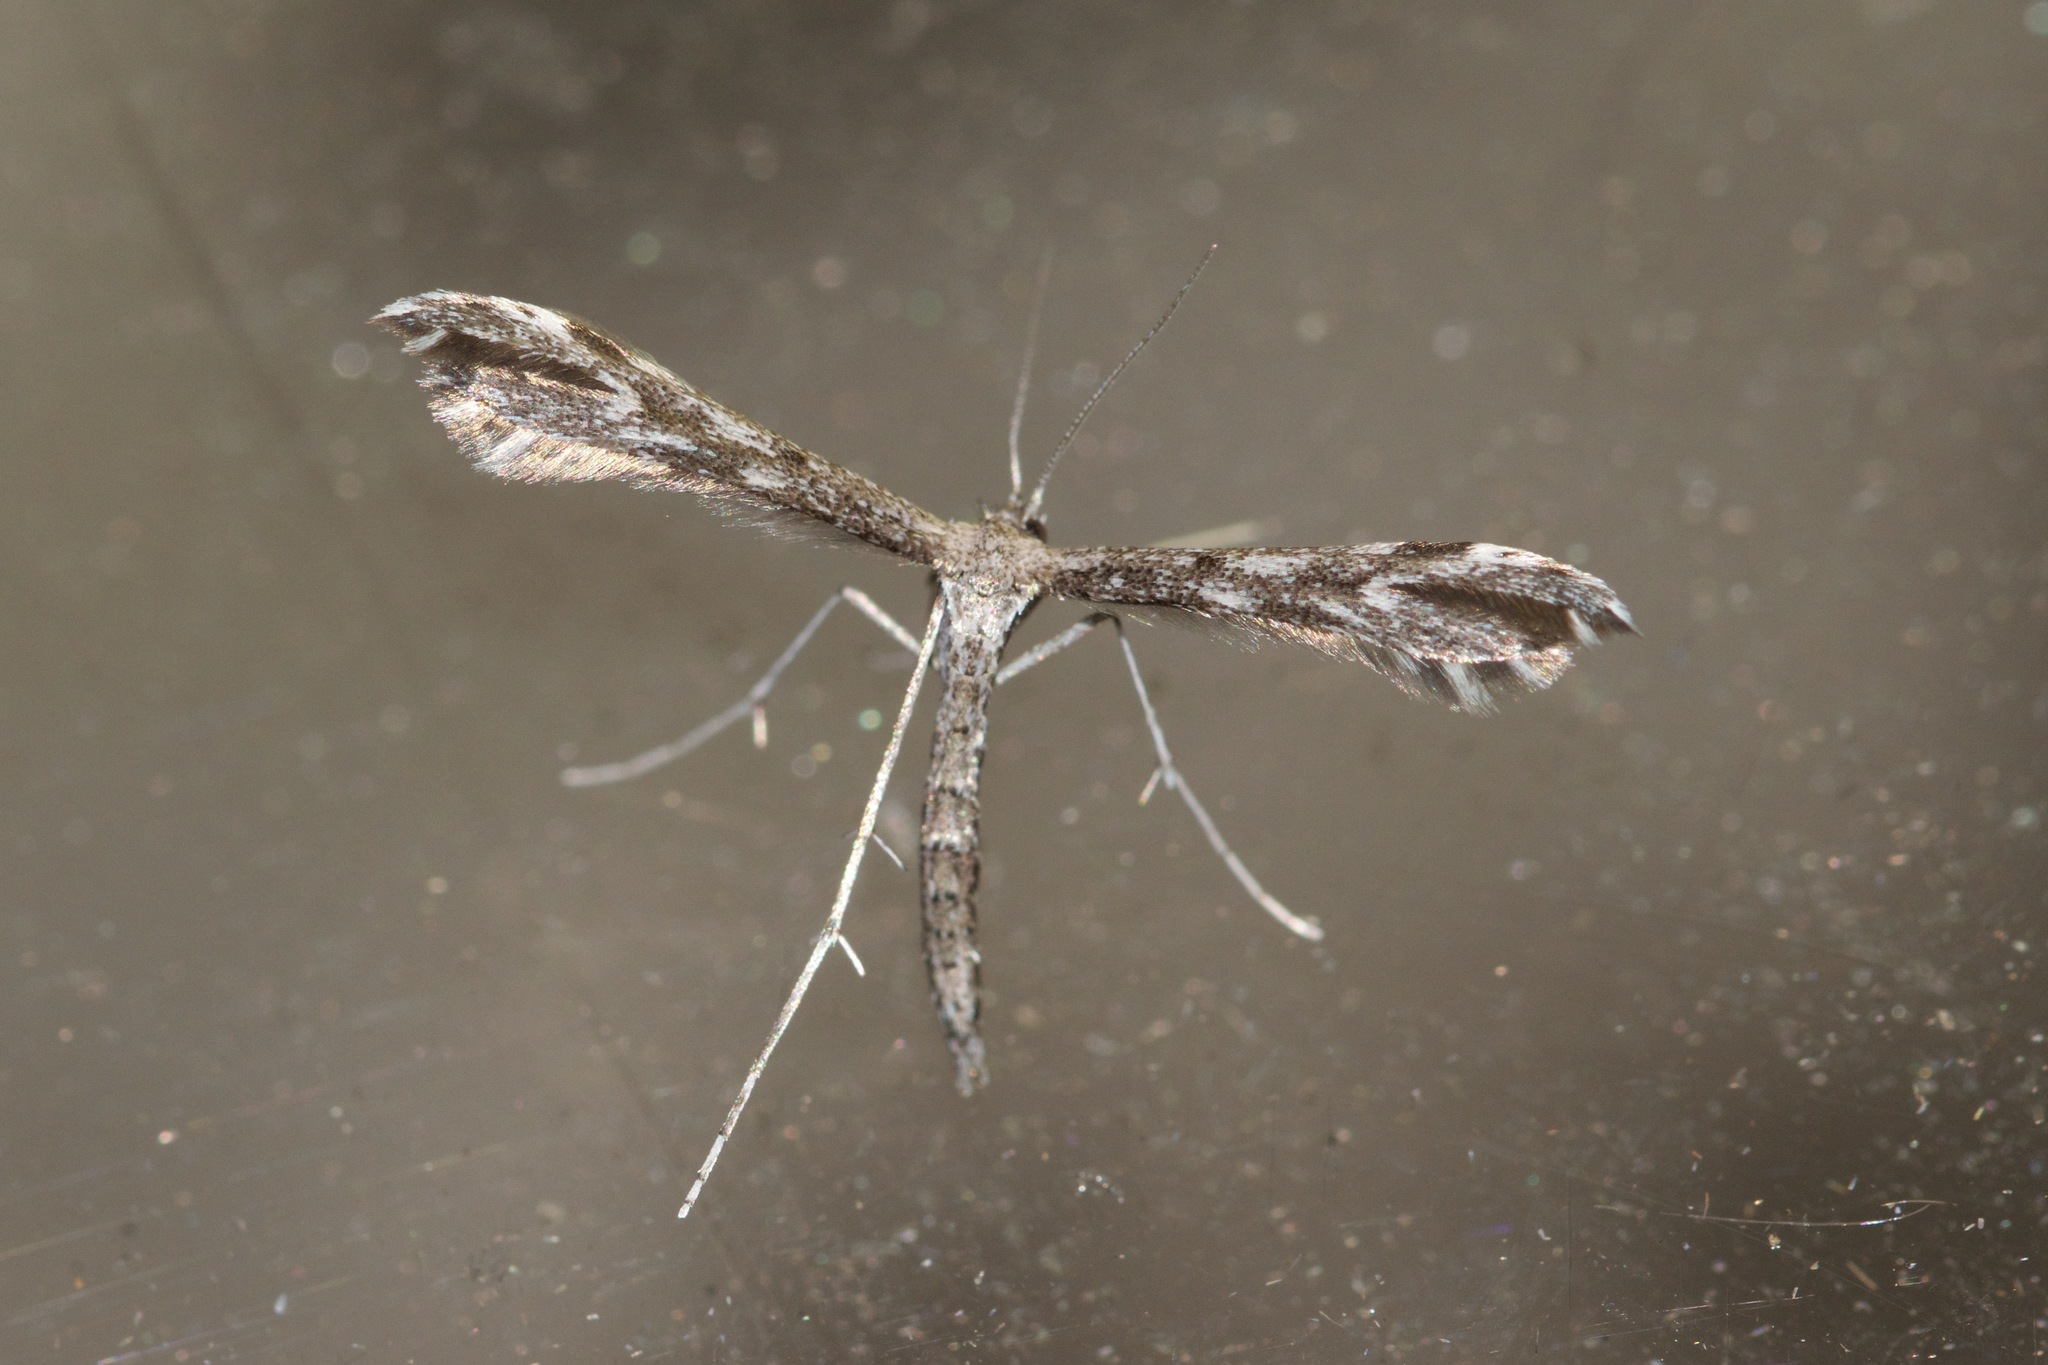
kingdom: Animalia
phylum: Arthropoda
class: Insecta
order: Lepidoptera
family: Pterophoridae
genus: Hellinsia
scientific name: Hellinsia inquinatus
